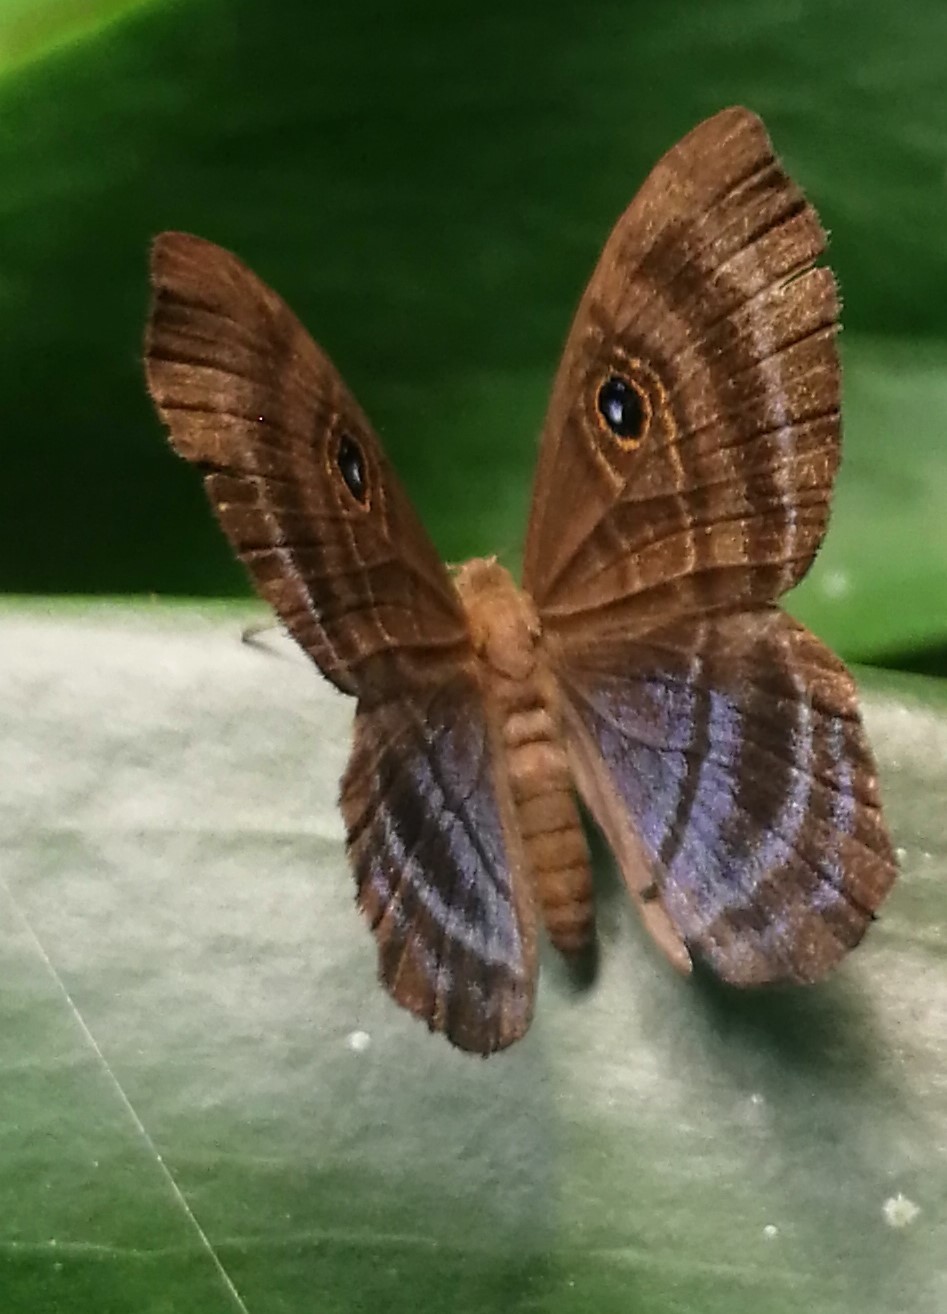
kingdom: Animalia
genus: Mesosemia
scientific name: Mesosemia lamachus
